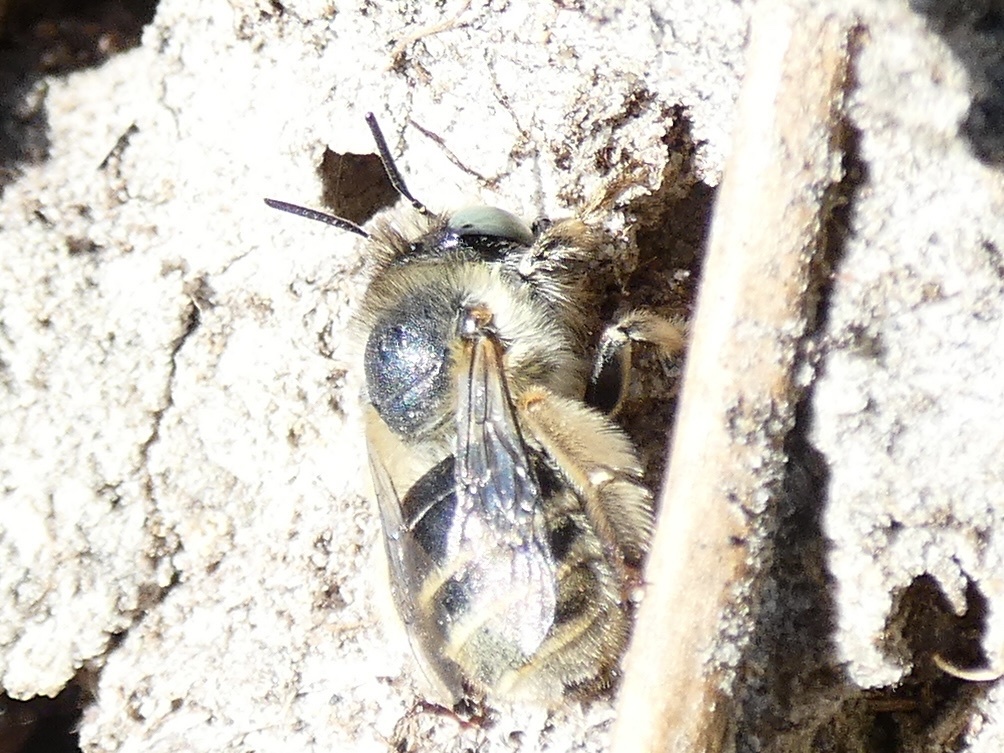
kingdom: Animalia
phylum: Arthropoda
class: Insecta
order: Hymenoptera
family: Apidae
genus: Anthophora
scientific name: Anthophora bimaculata
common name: Green-eyed flower bee
